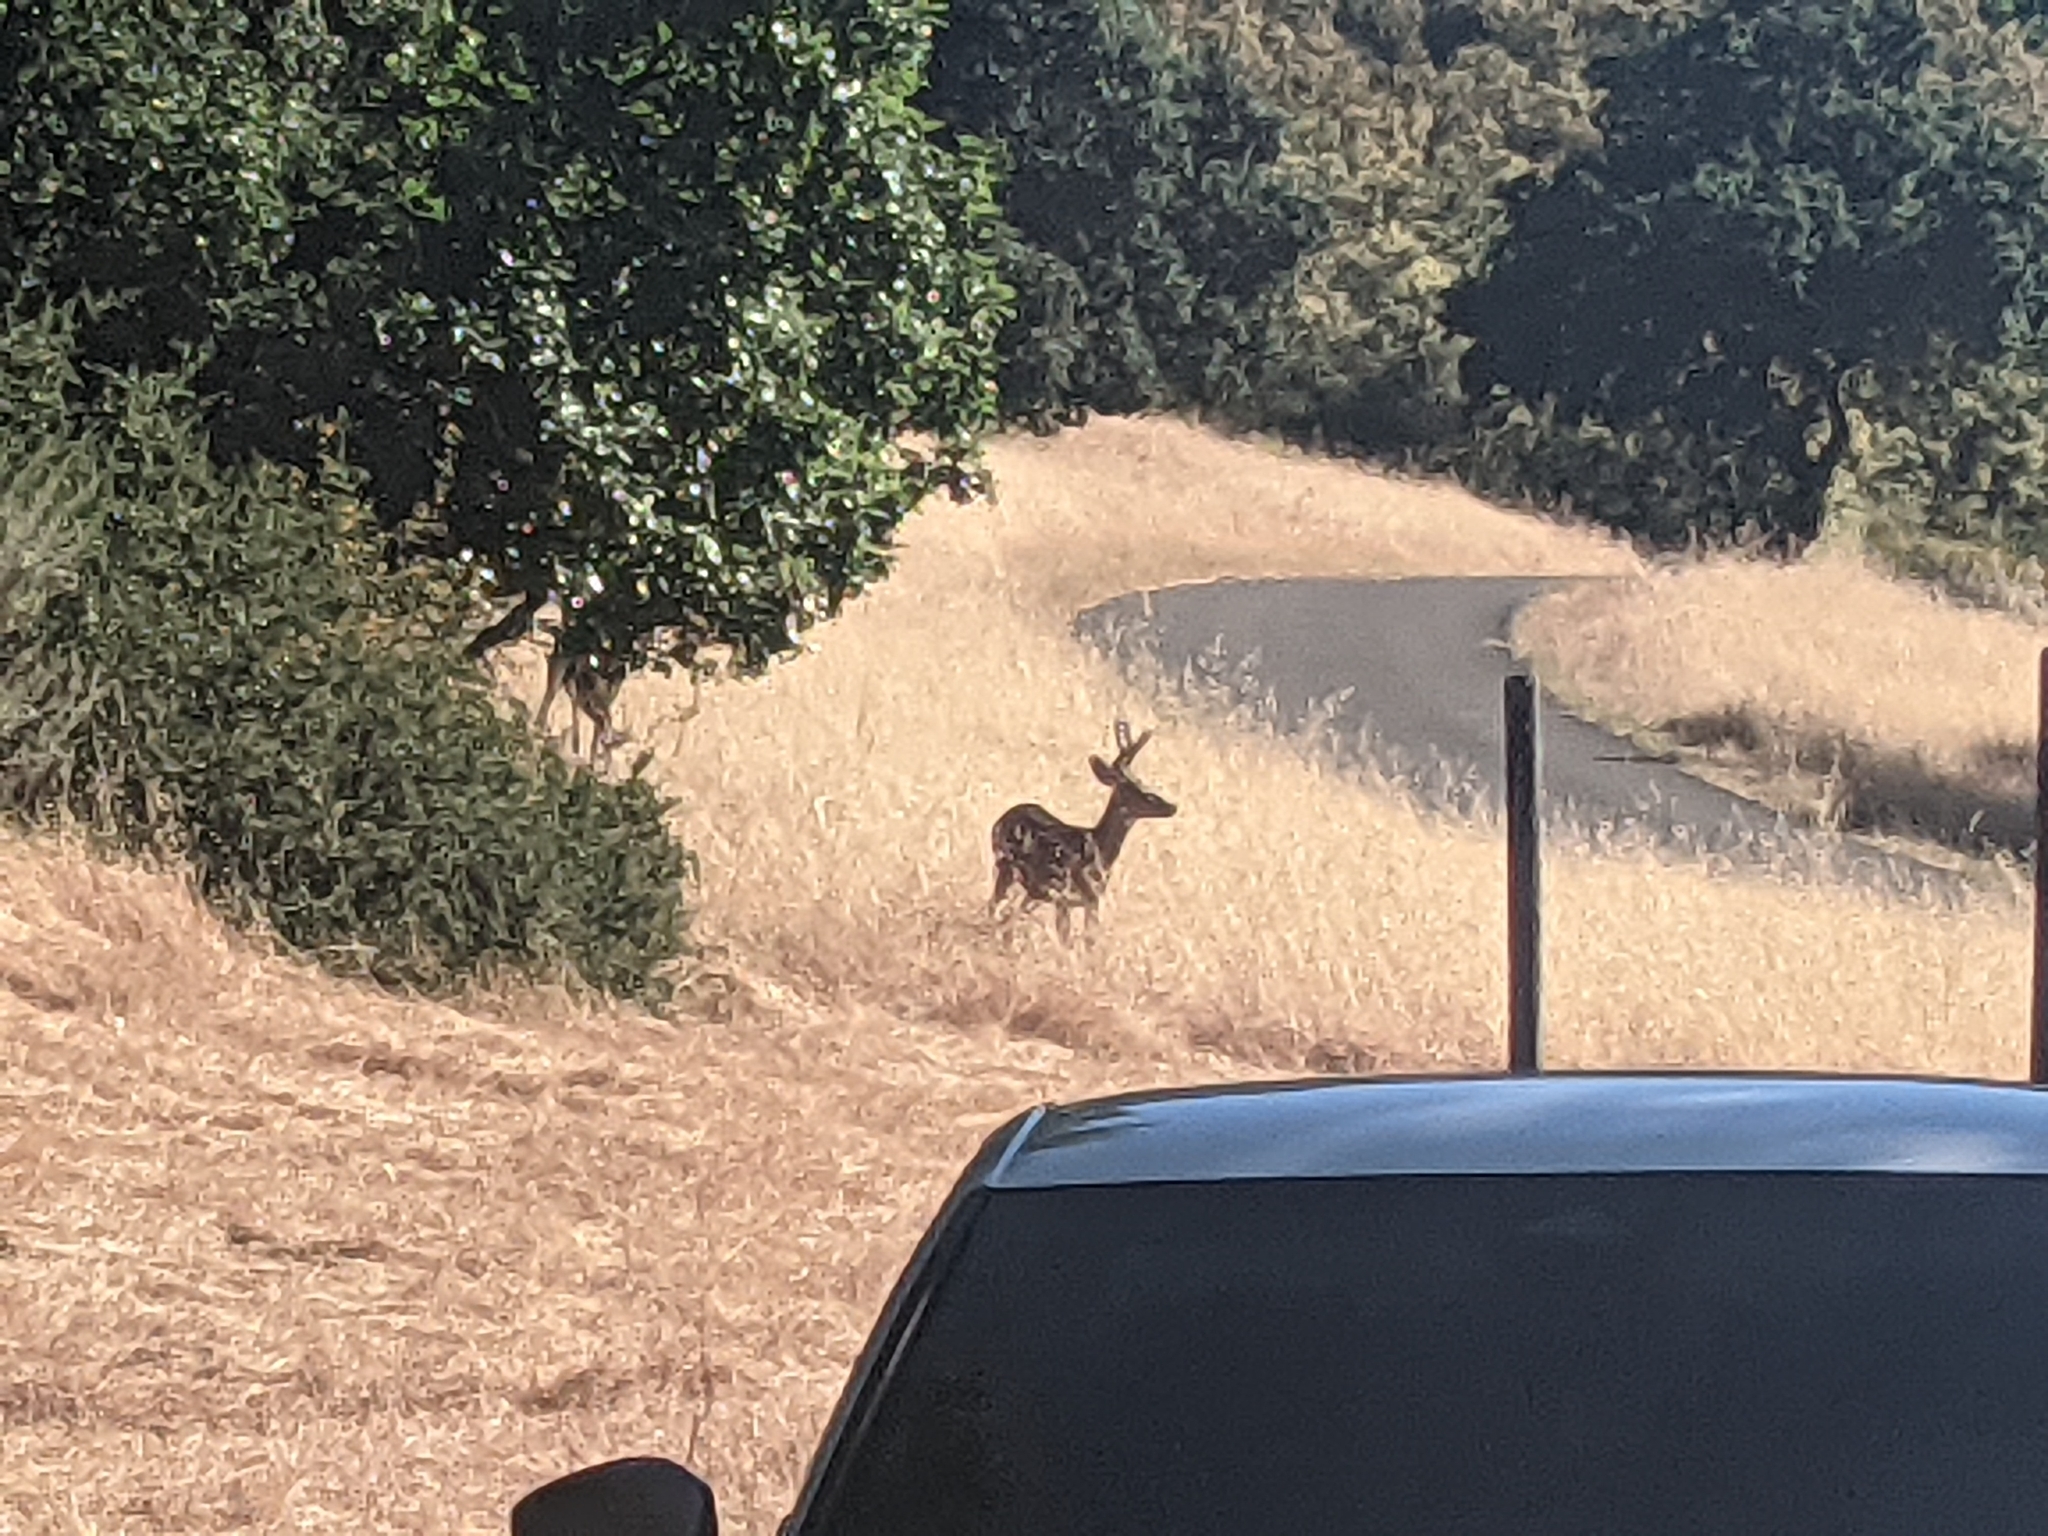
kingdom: Animalia
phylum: Chordata
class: Mammalia
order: Artiodactyla
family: Cervidae
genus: Odocoileus
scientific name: Odocoileus hemionus
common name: Mule deer
